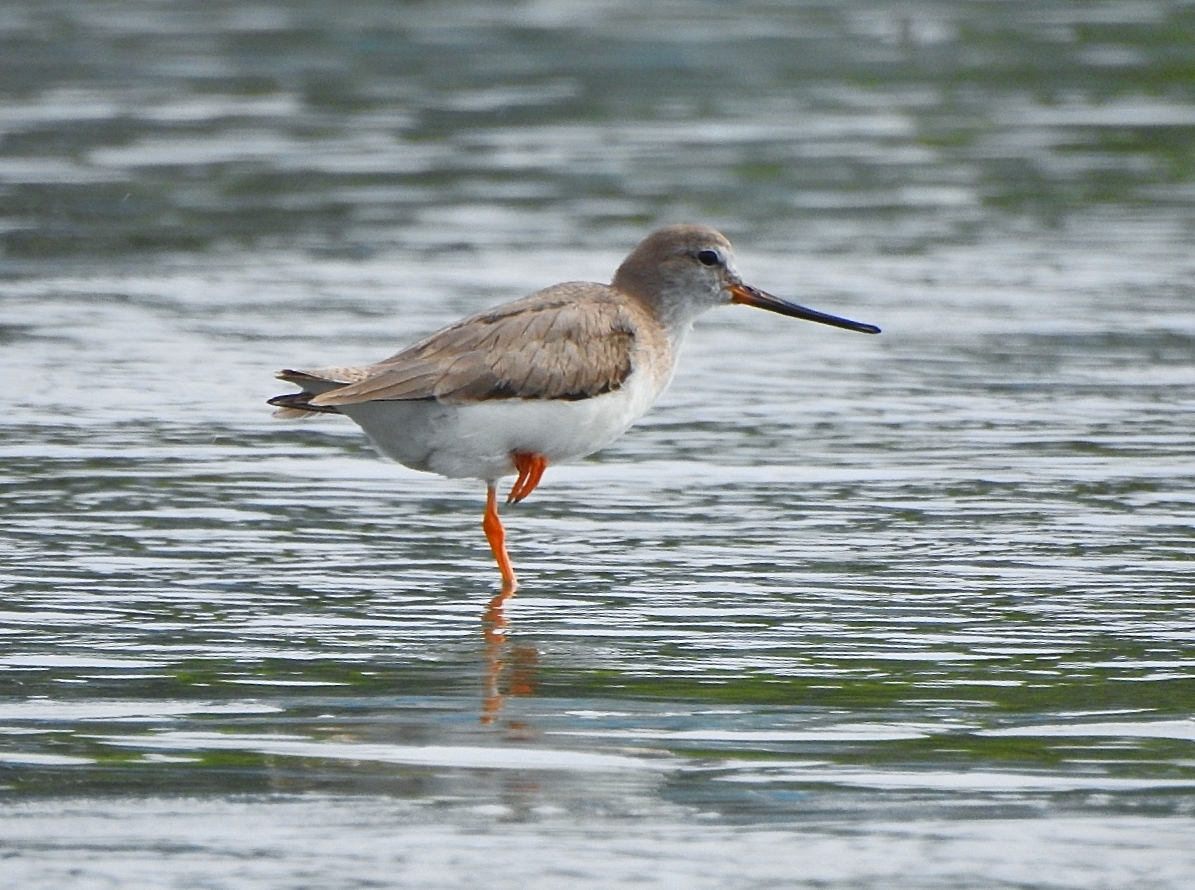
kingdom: Animalia
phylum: Chordata
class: Aves
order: Charadriiformes
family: Scolopacidae
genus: Xenus
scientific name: Xenus cinereus
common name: Terek sandpiper
